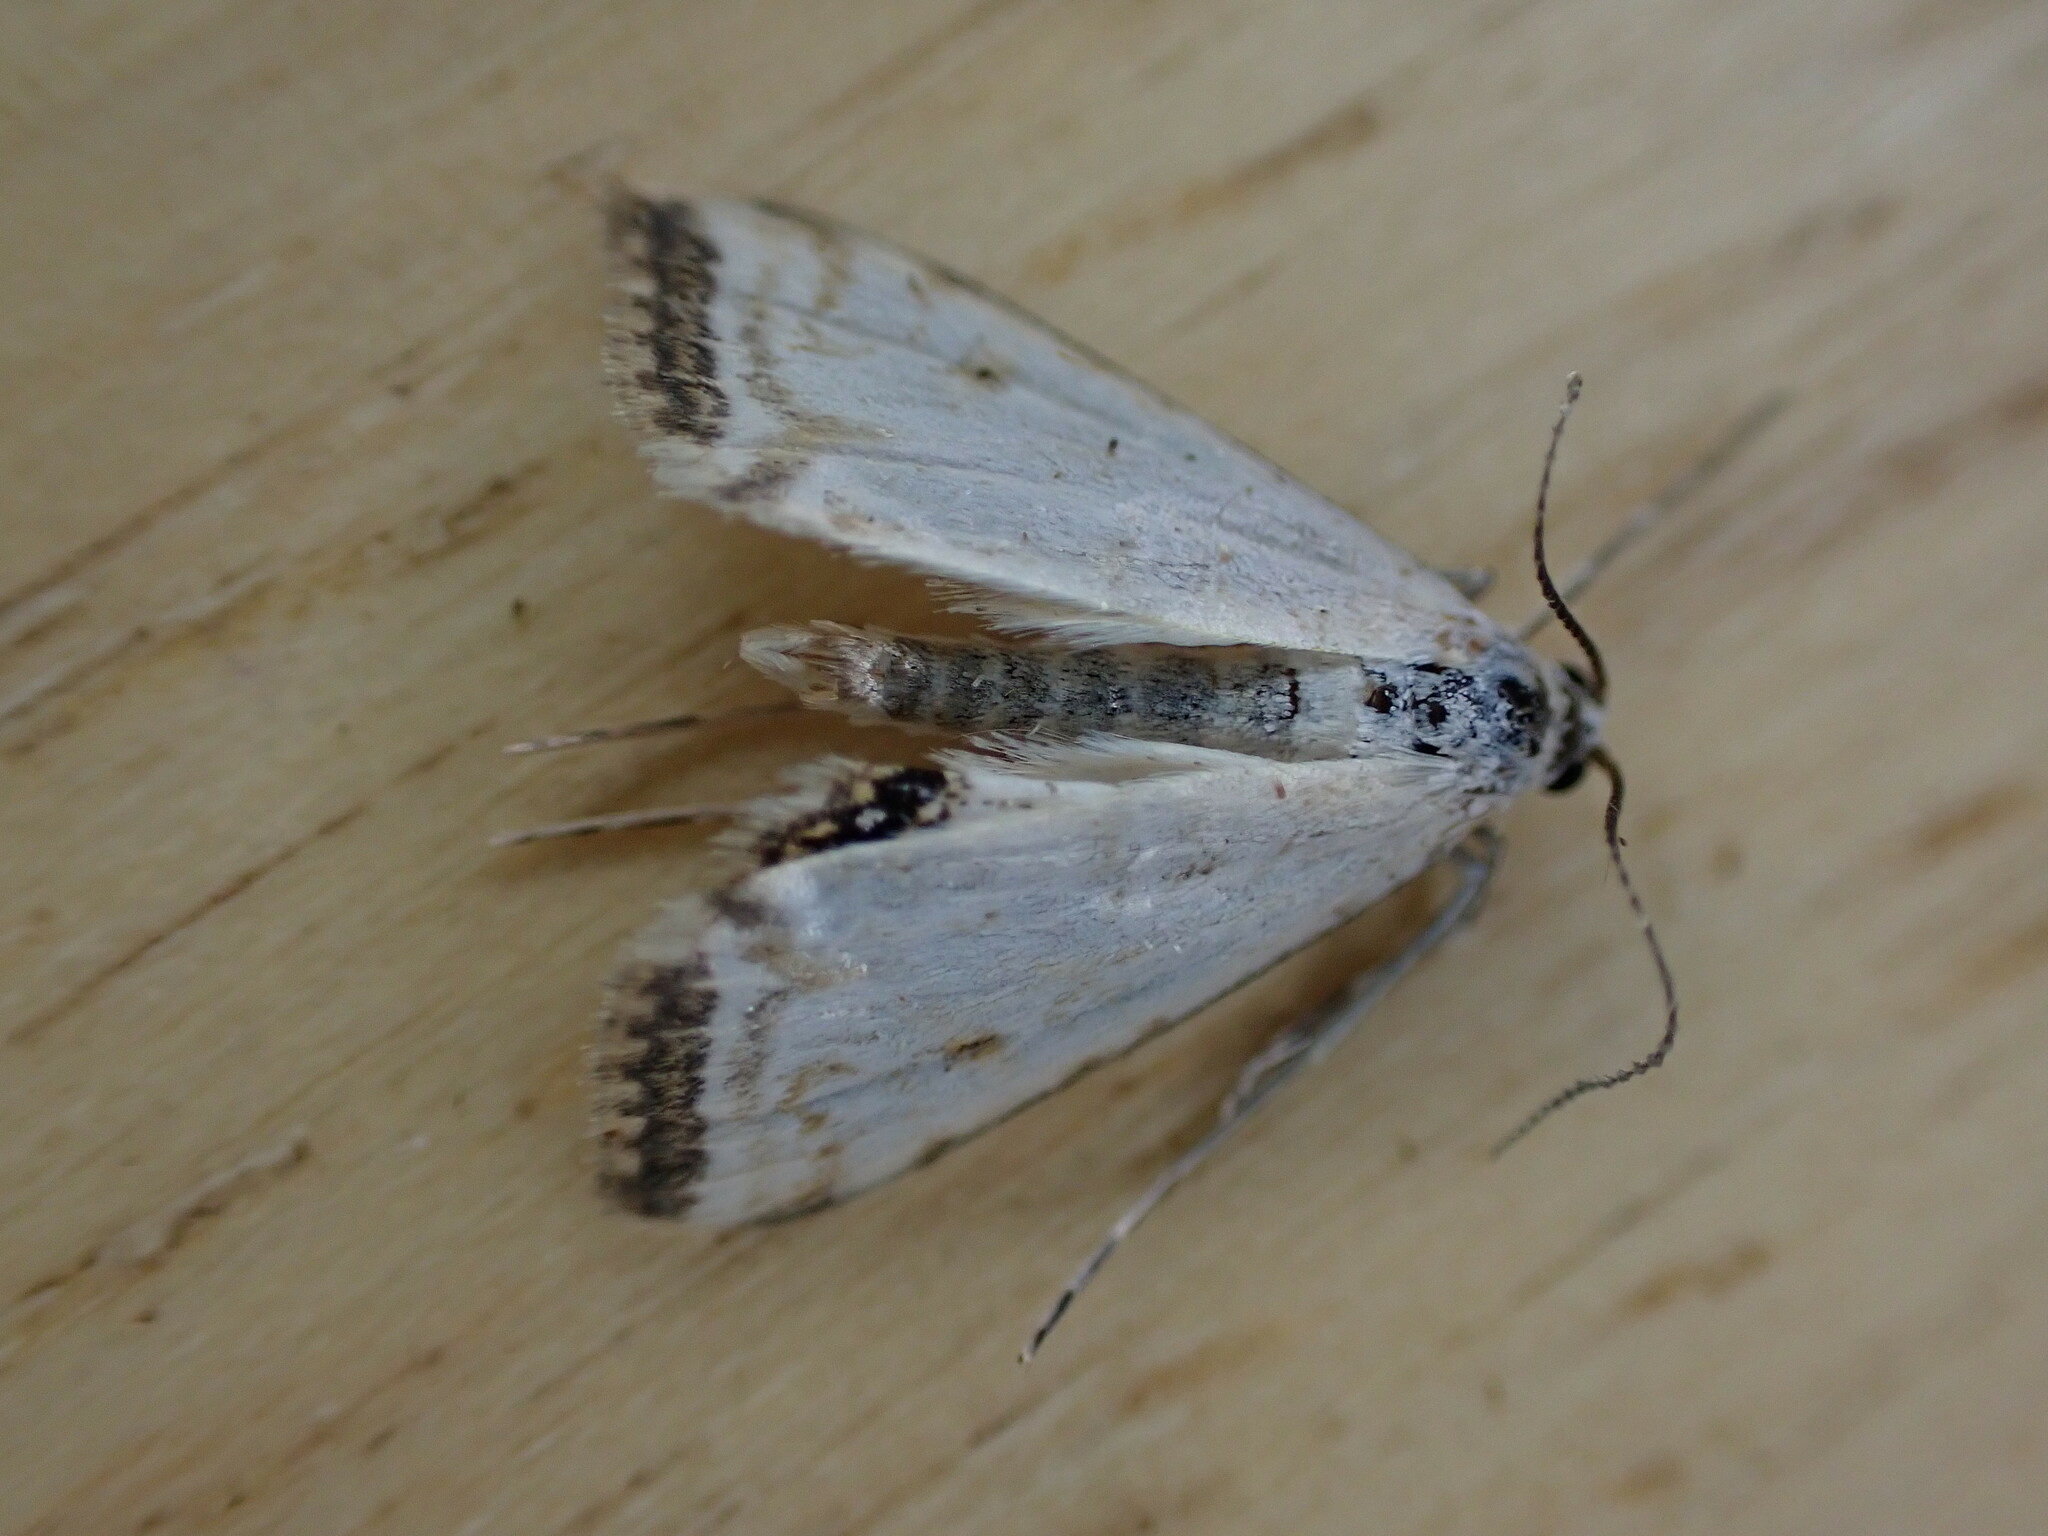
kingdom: Animalia
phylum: Arthropoda
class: Insecta
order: Lepidoptera
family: Crambidae
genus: Cataclysta
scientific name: Cataclysta lemnata
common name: Small china-mark
